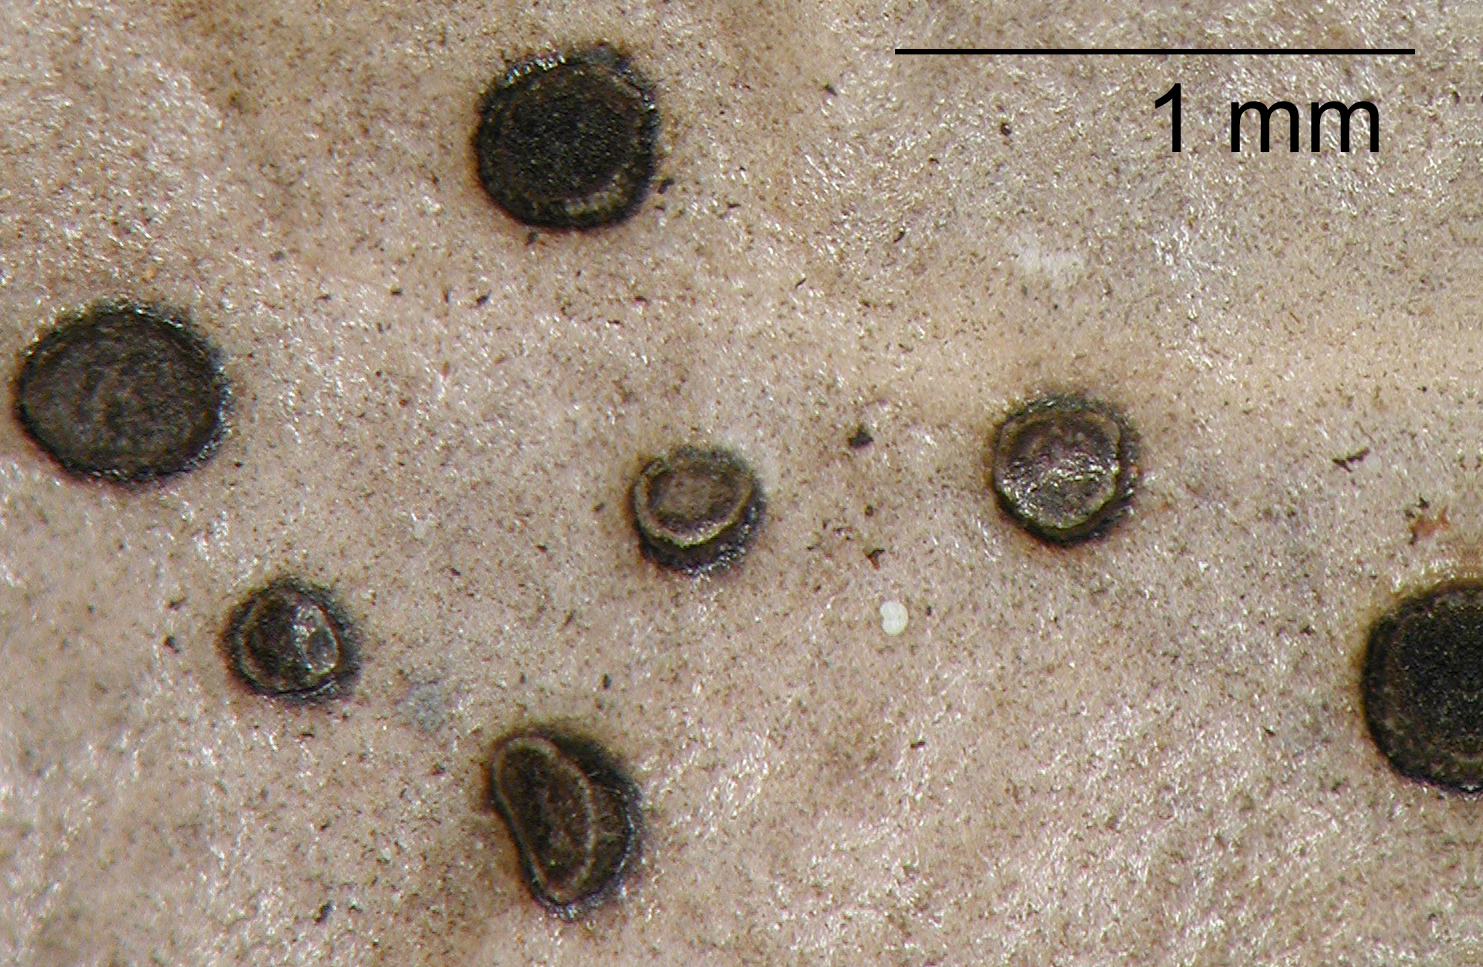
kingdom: Fungi
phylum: Ascomycota
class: Leotiomycetes
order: Helotiales
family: Cenangiaceae
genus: Trochila
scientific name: Trochila ilicina
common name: Holly speckle
